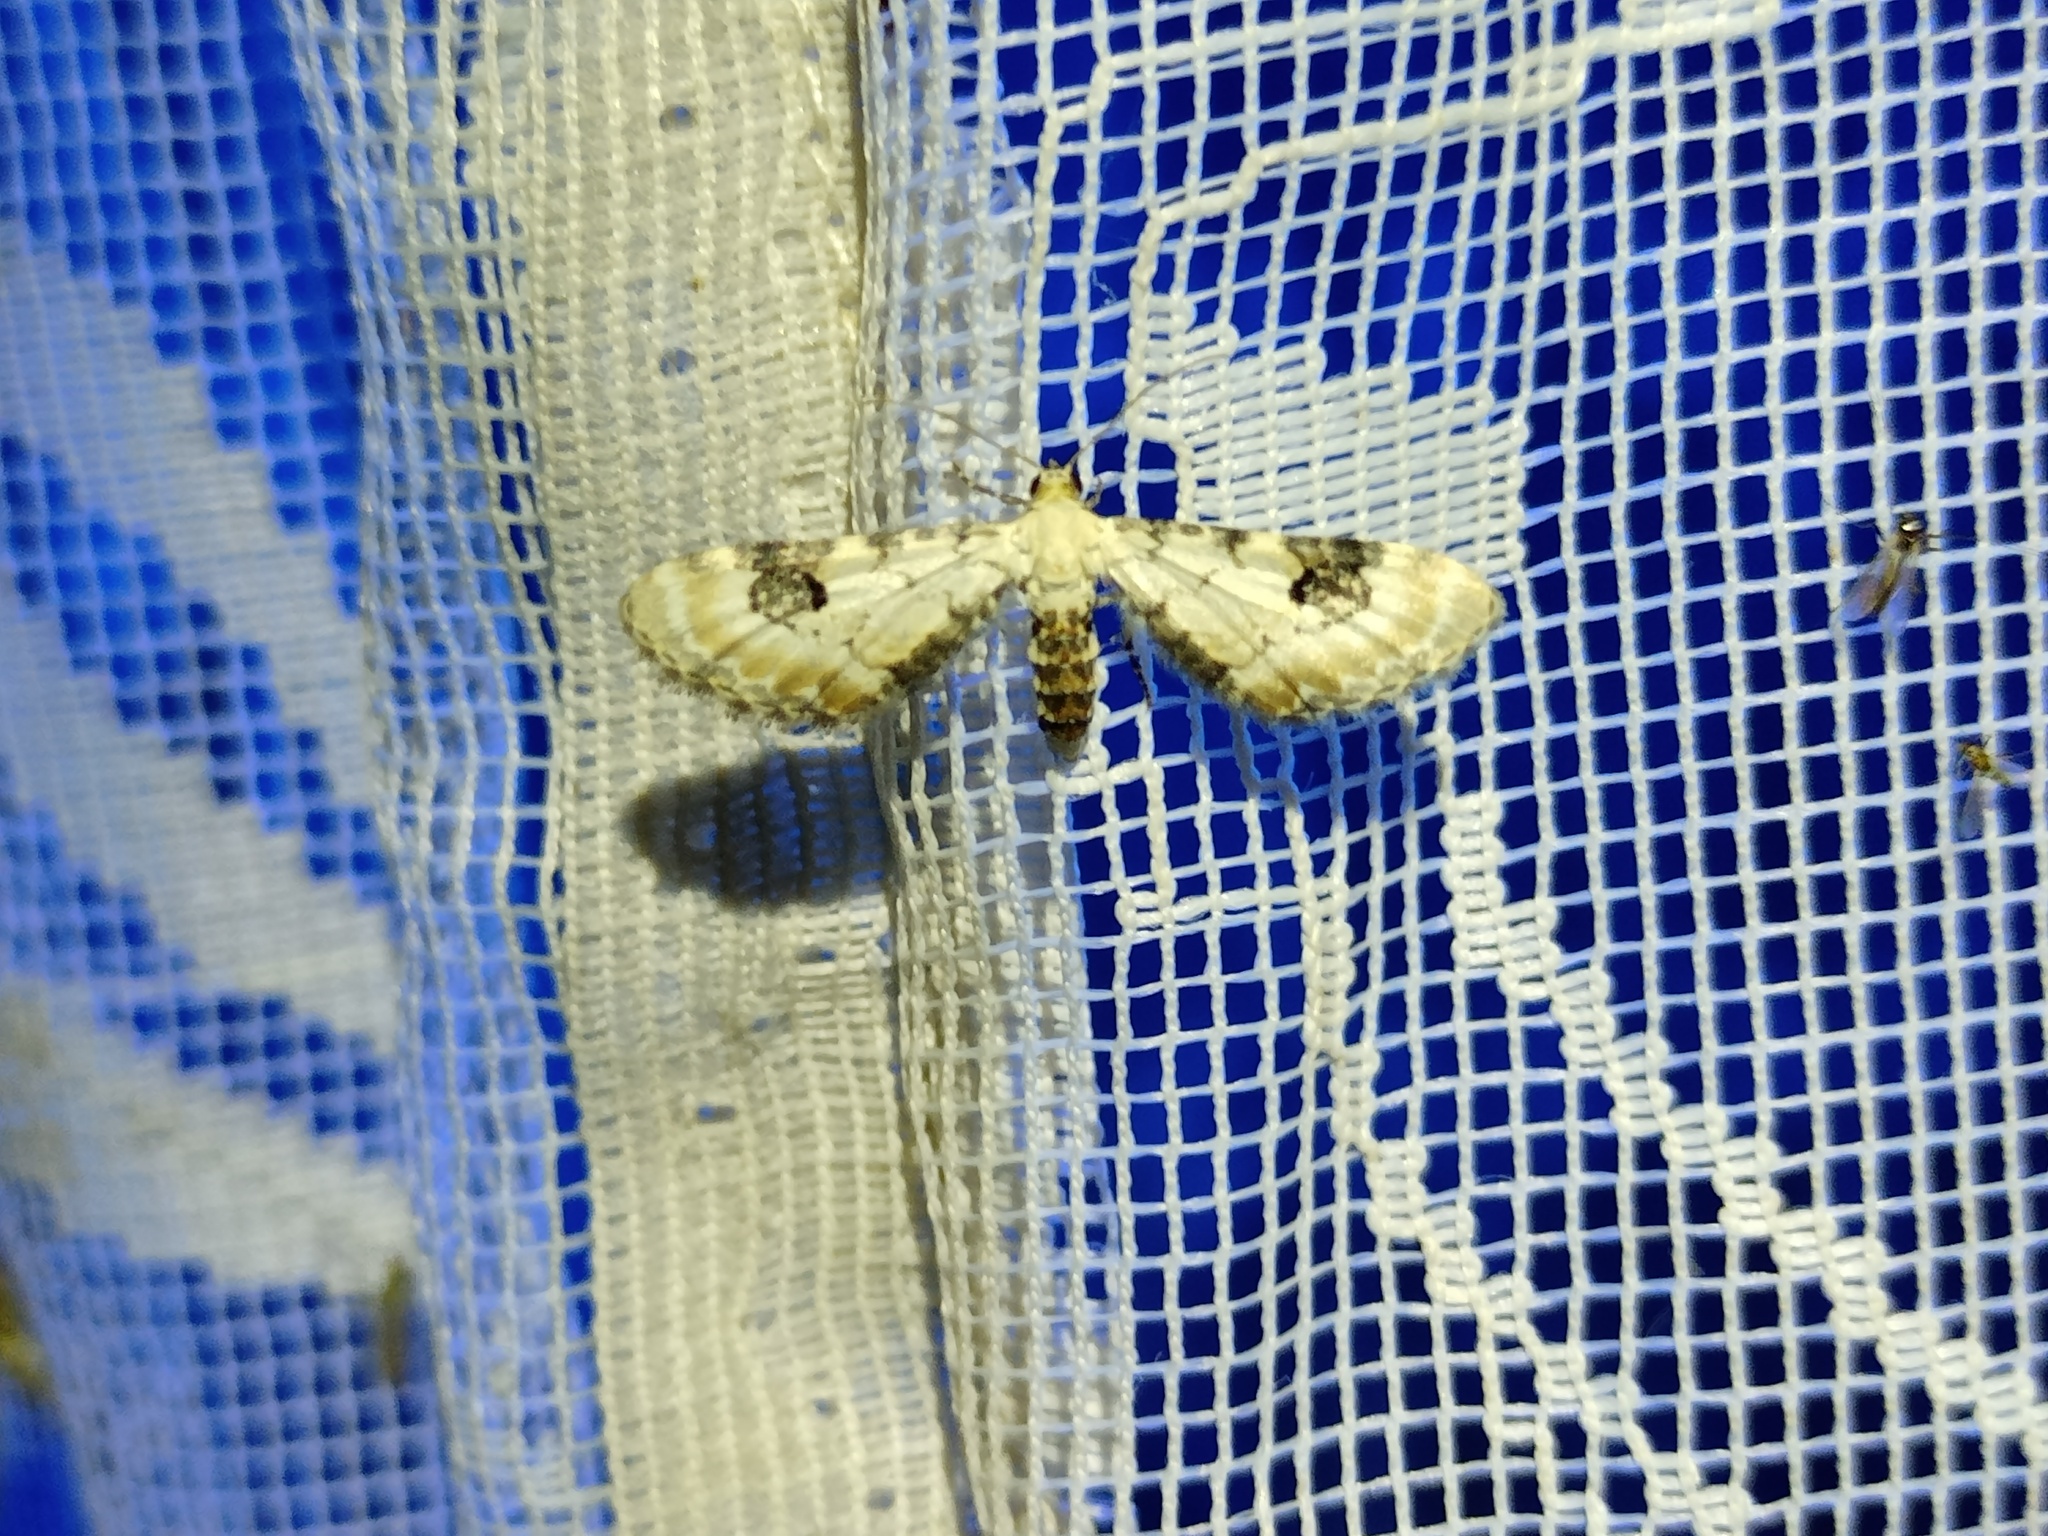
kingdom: Animalia
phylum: Arthropoda
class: Insecta
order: Lepidoptera
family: Geometridae
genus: Eupithecia
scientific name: Eupithecia centaureata
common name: Lime-speck pug
